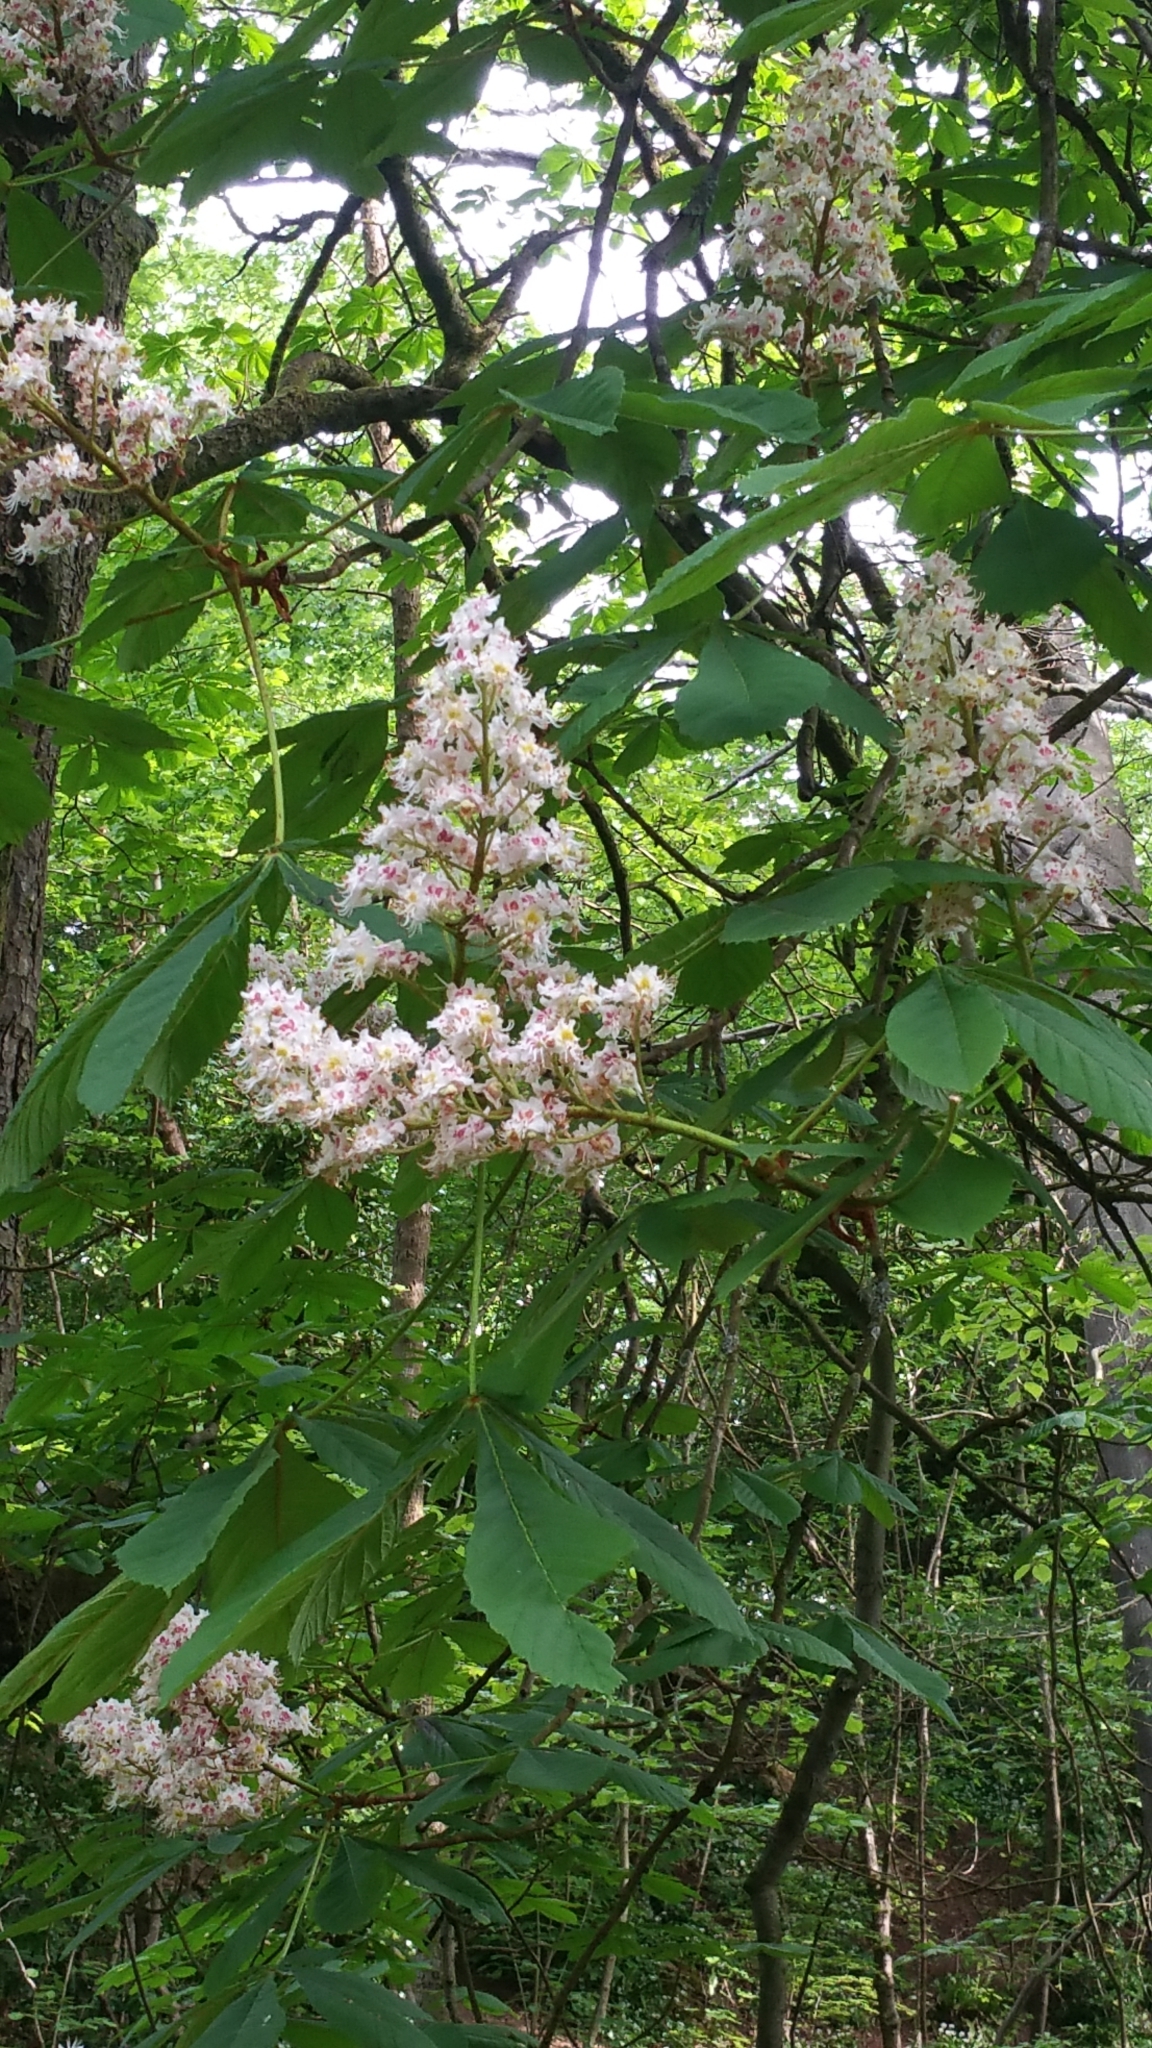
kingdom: Plantae
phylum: Tracheophyta
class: Magnoliopsida
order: Sapindales
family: Sapindaceae
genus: Aesculus
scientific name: Aesculus hippocastanum
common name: Horse-chestnut
